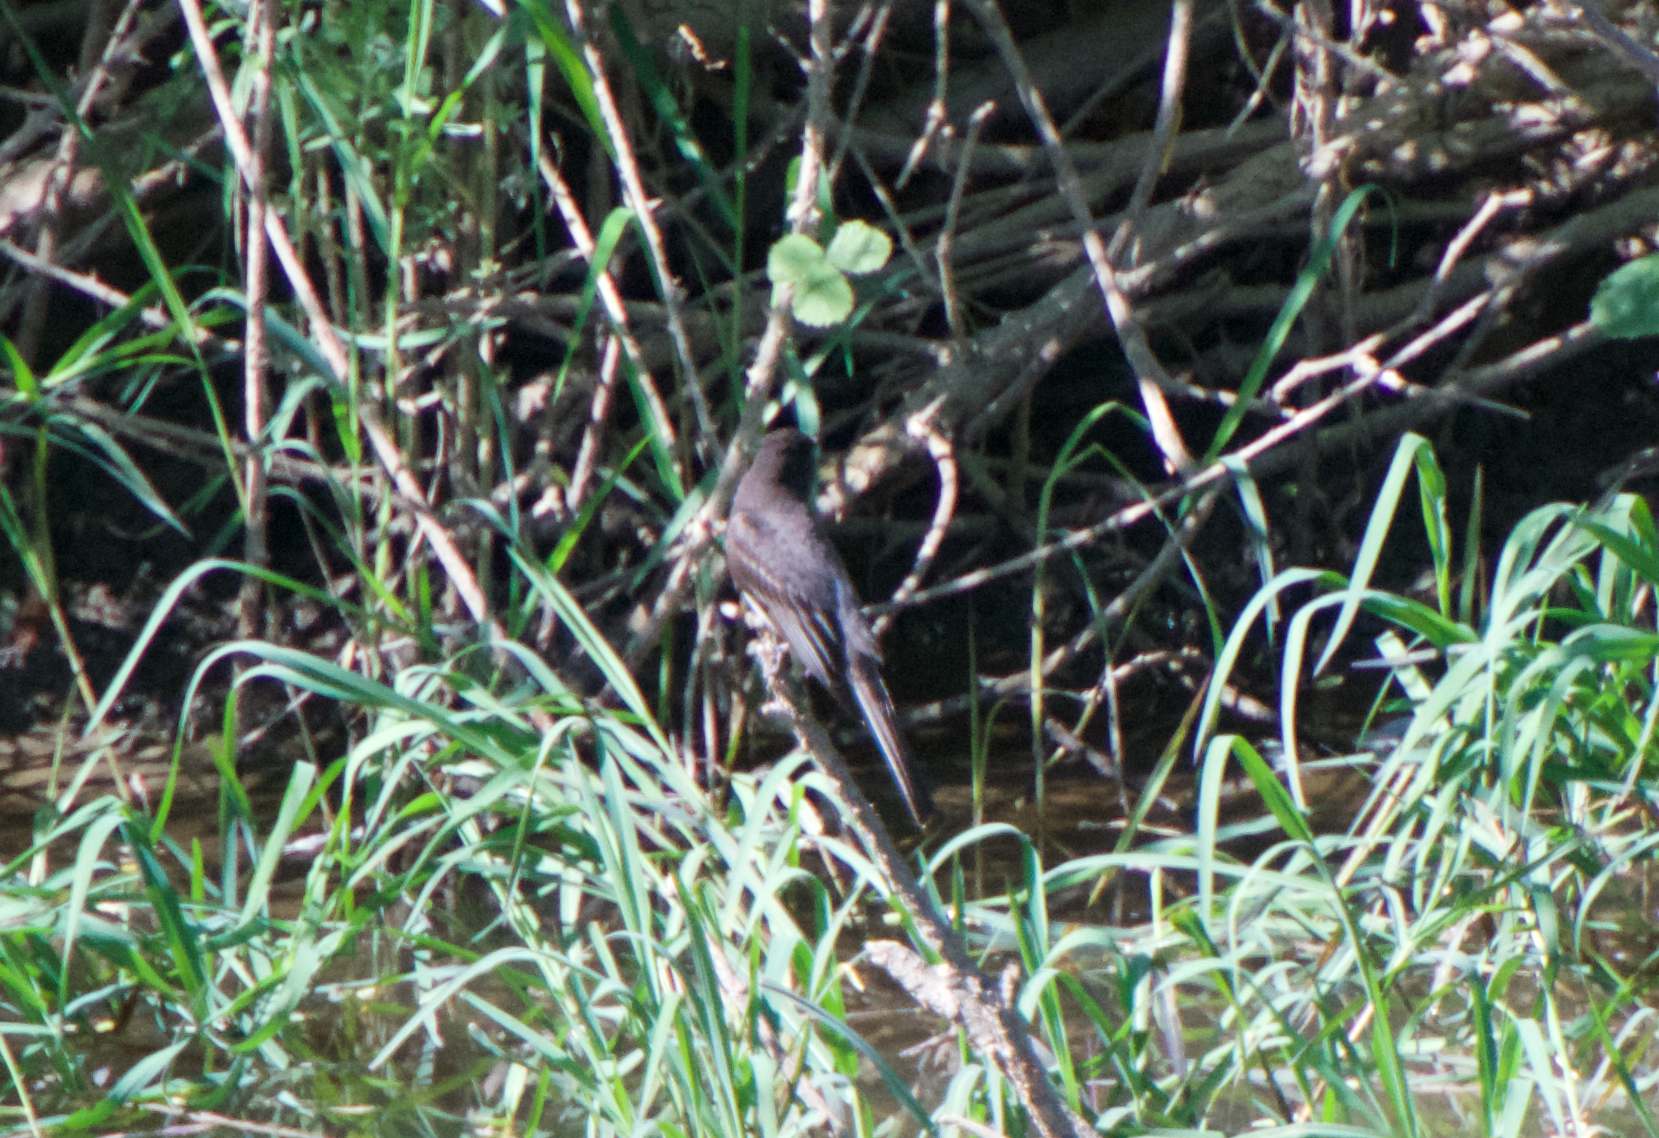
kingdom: Animalia
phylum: Chordata
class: Aves
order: Passeriformes
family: Tyrannidae
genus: Sayornis
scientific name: Sayornis nigricans
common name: Black phoebe
